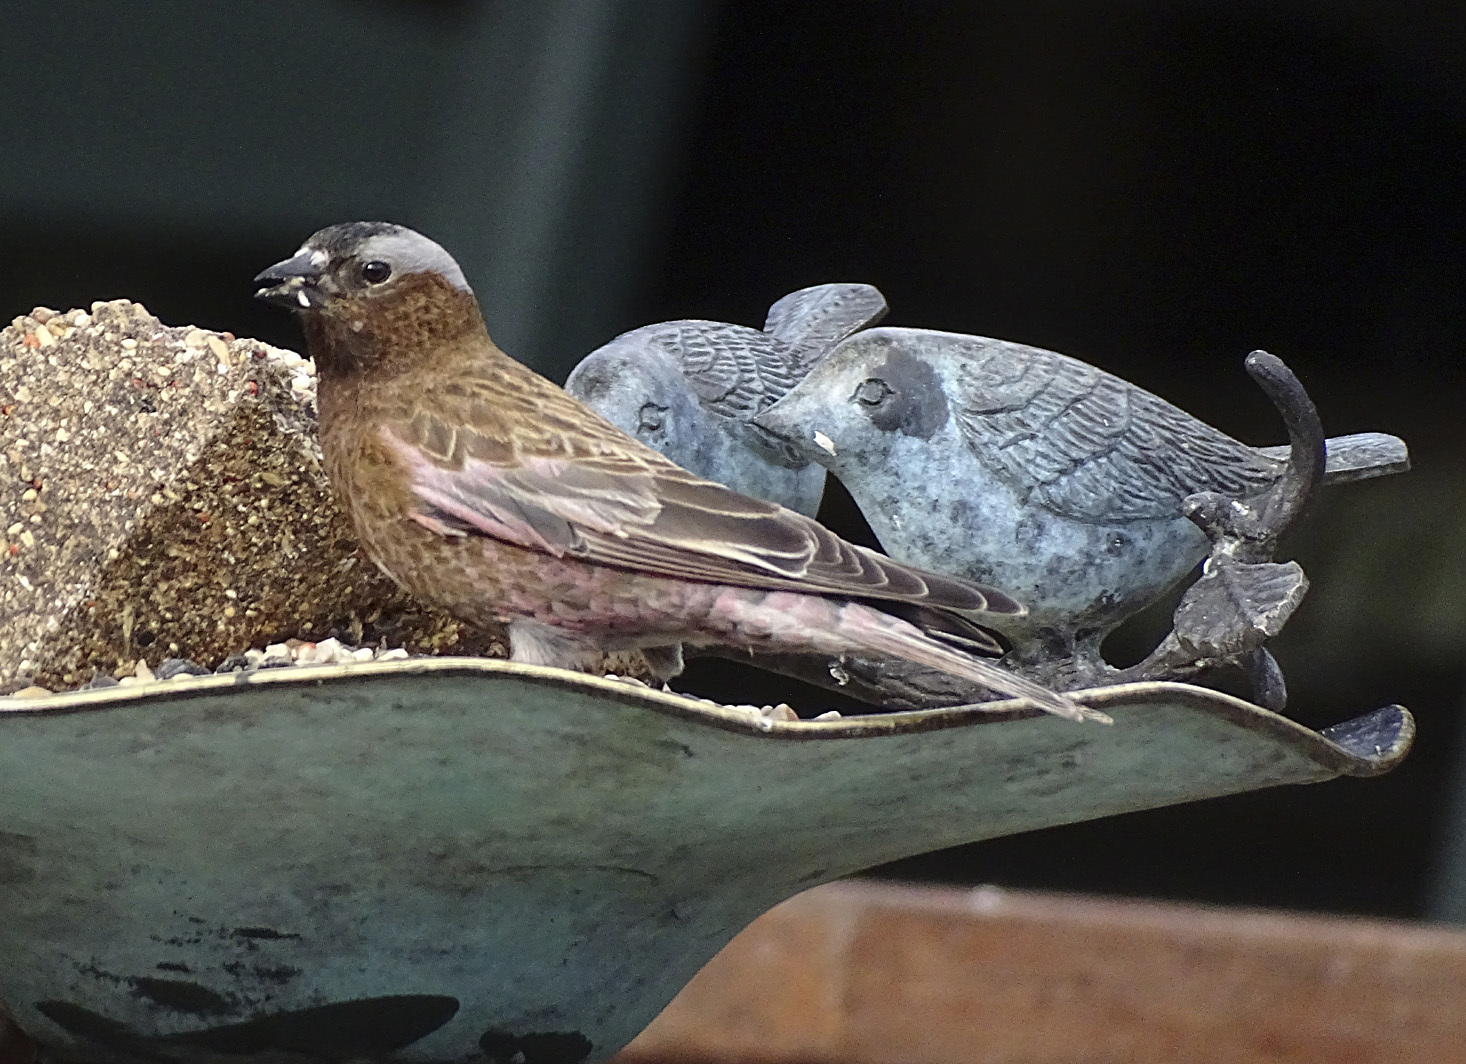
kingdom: Animalia
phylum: Chordata
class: Aves
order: Passeriformes
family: Fringillidae
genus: Leucosticte
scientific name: Leucosticte tephrocotis
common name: Gray-crowned rosy-finch
